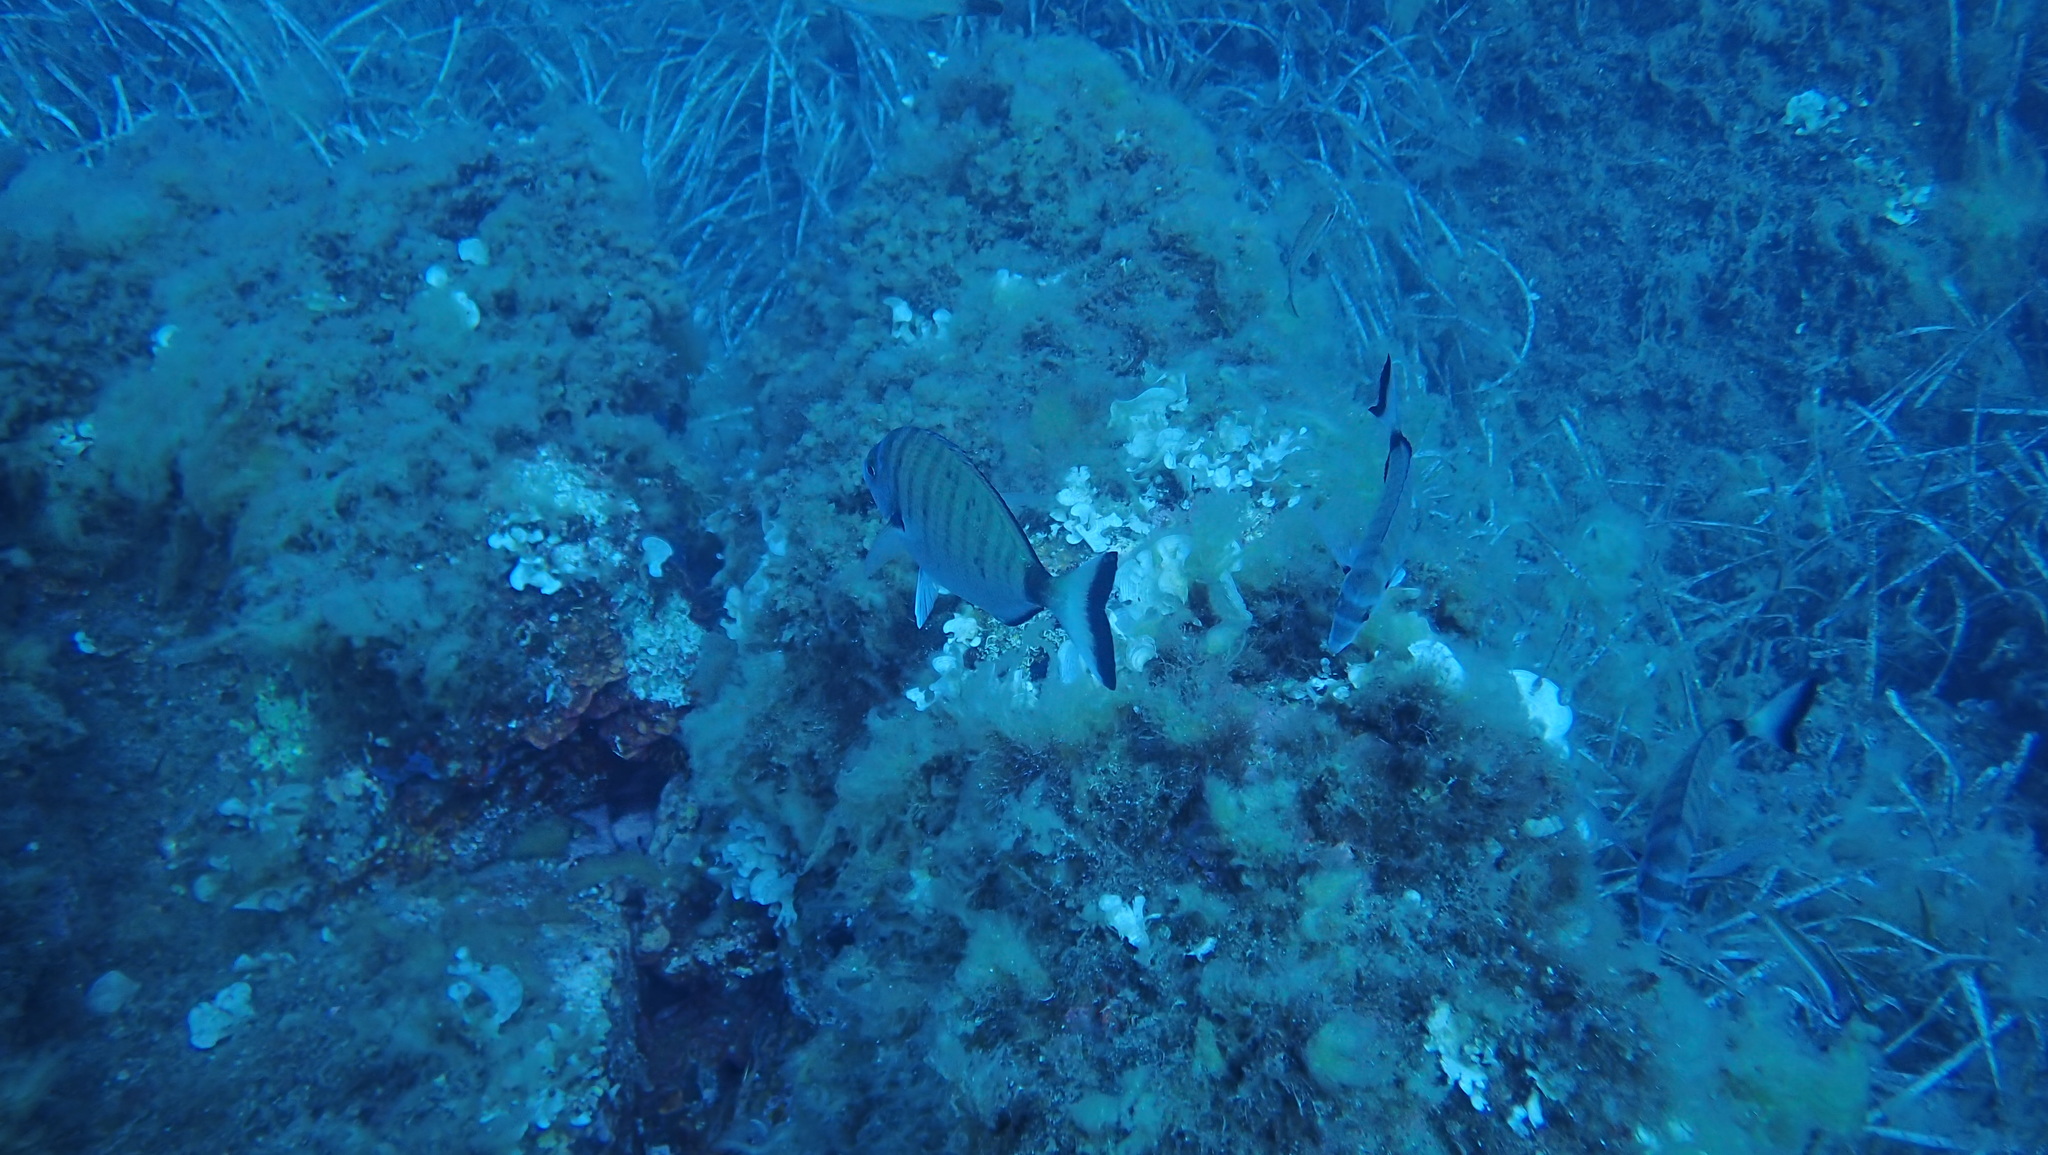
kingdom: Animalia
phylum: Chordata
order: Perciformes
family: Sparidae
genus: Diplodus
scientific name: Diplodus puntazzo
